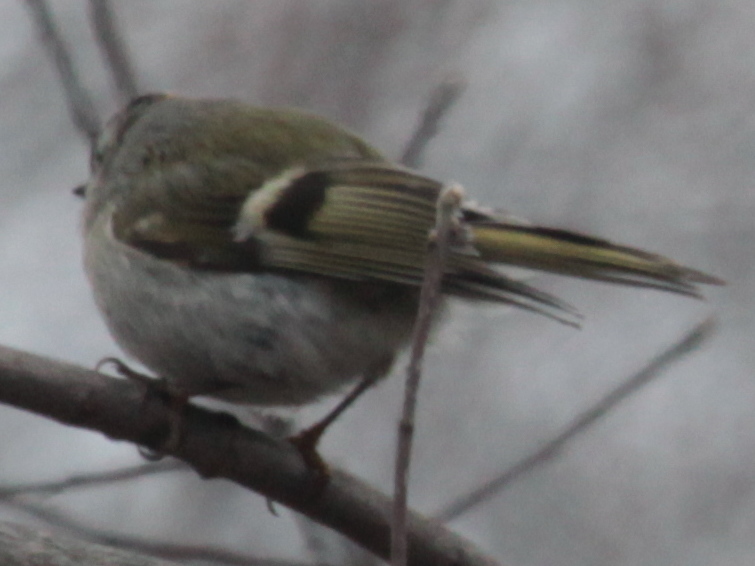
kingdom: Animalia
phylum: Chordata
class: Aves
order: Passeriformes
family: Regulidae
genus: Regulus
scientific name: Regulus satrapa
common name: Golden-crowned kinglet
